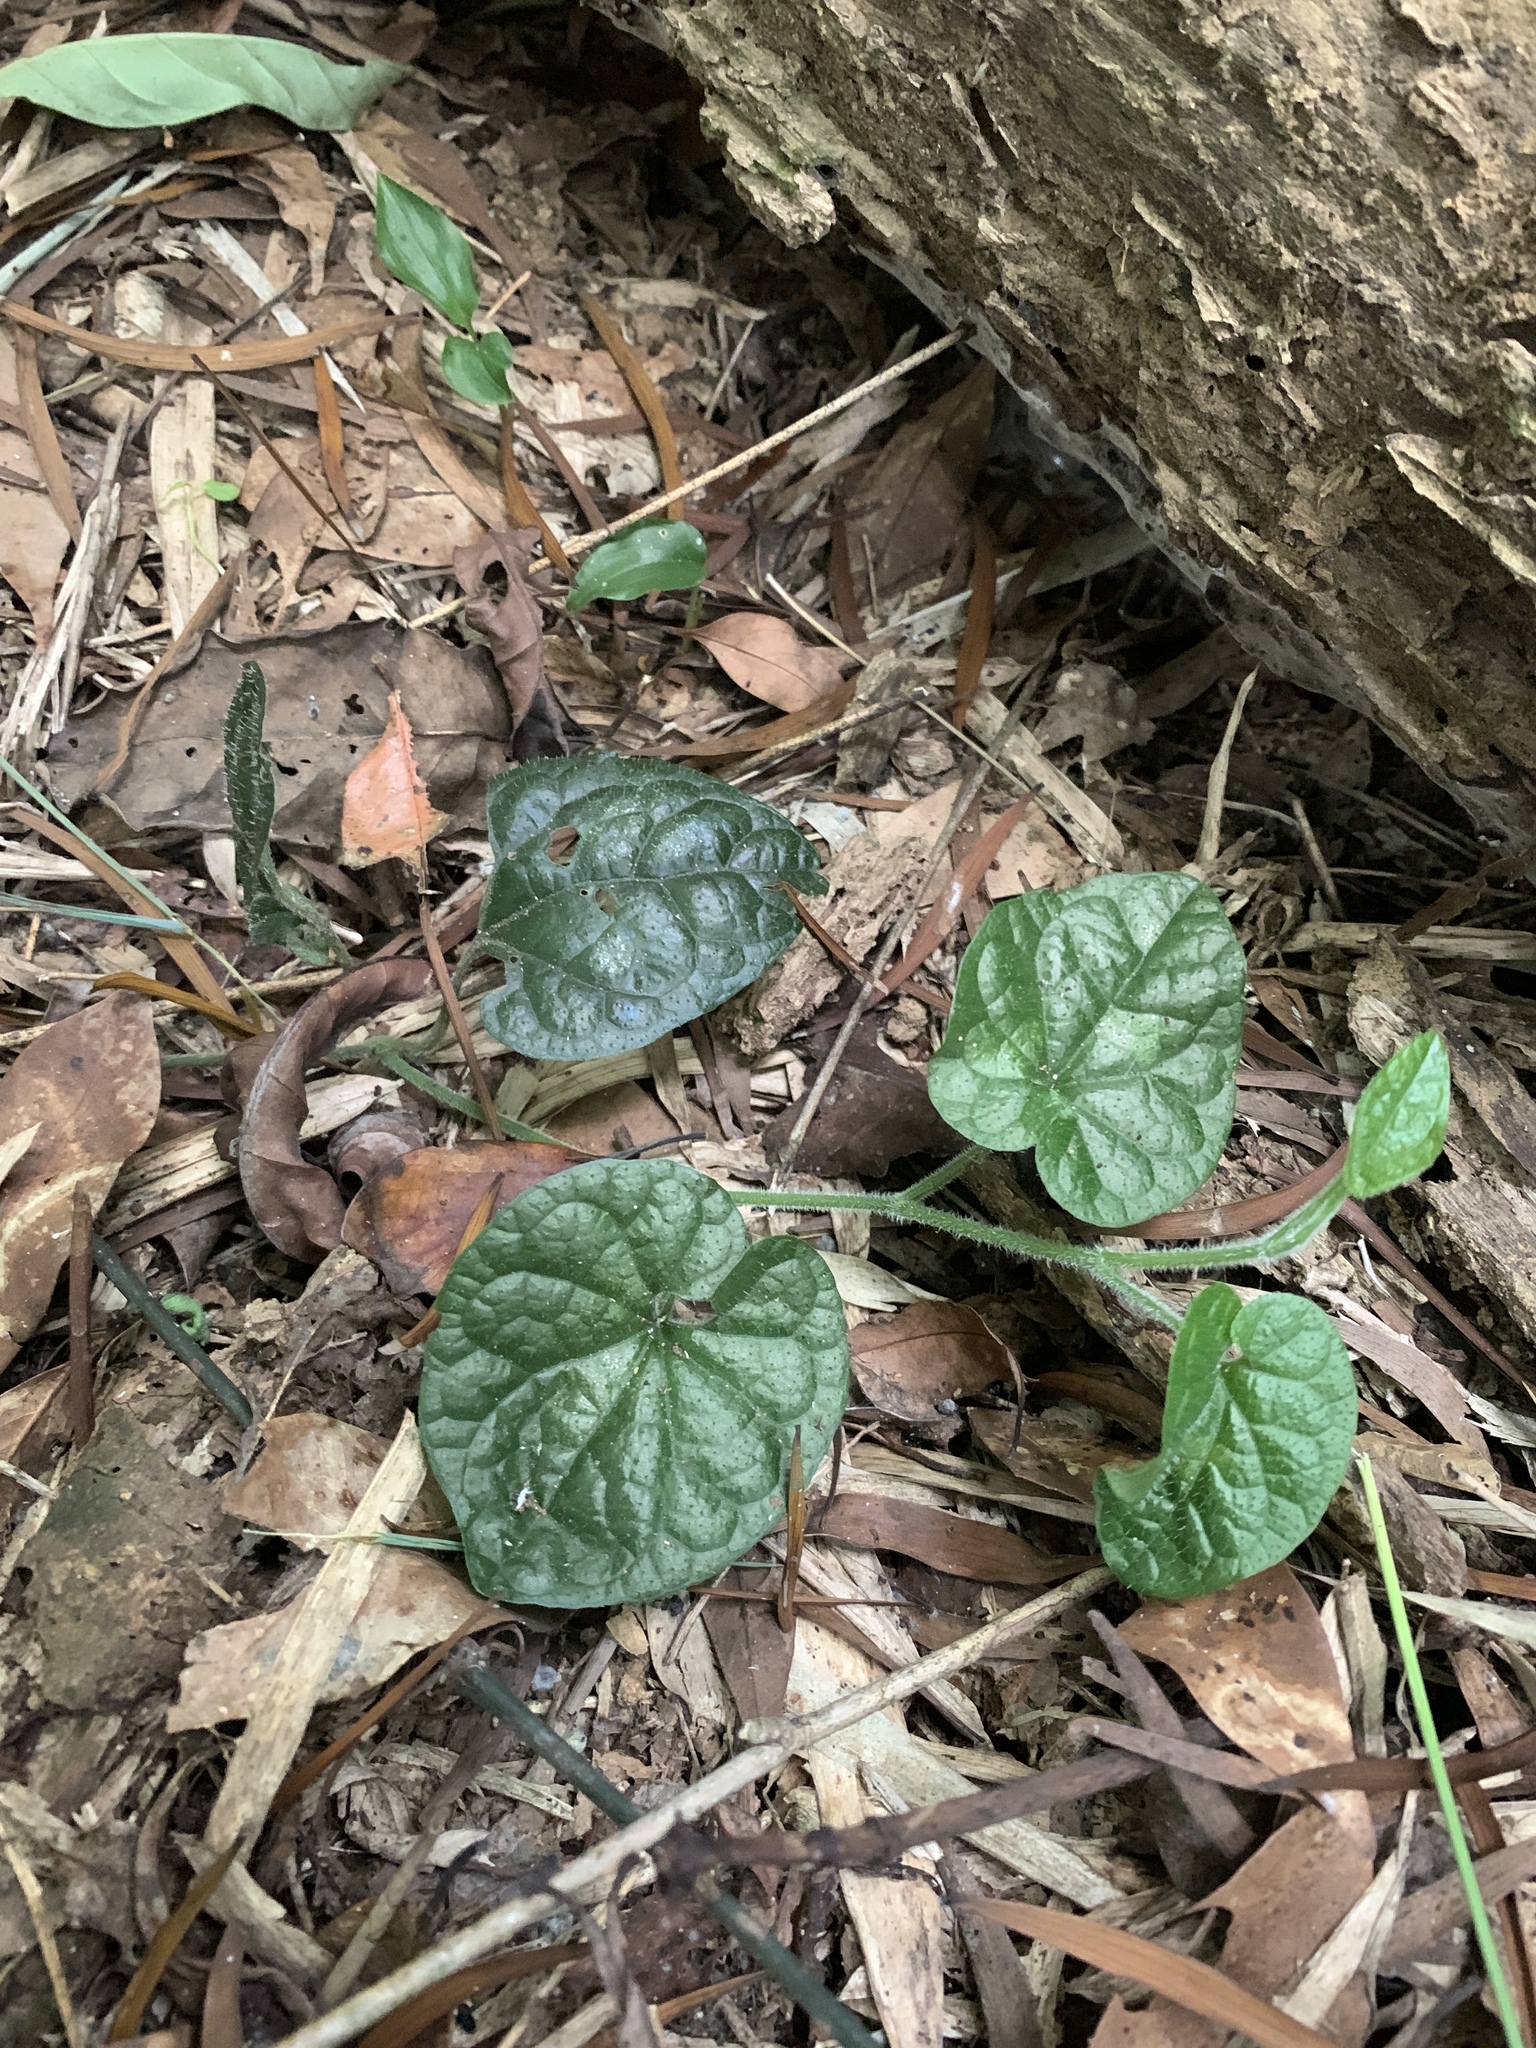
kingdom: Plantae
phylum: Tracheophyta
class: Magnoliopsida
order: Piperales
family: Piperaceae
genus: Piper
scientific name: Piper sintenense
